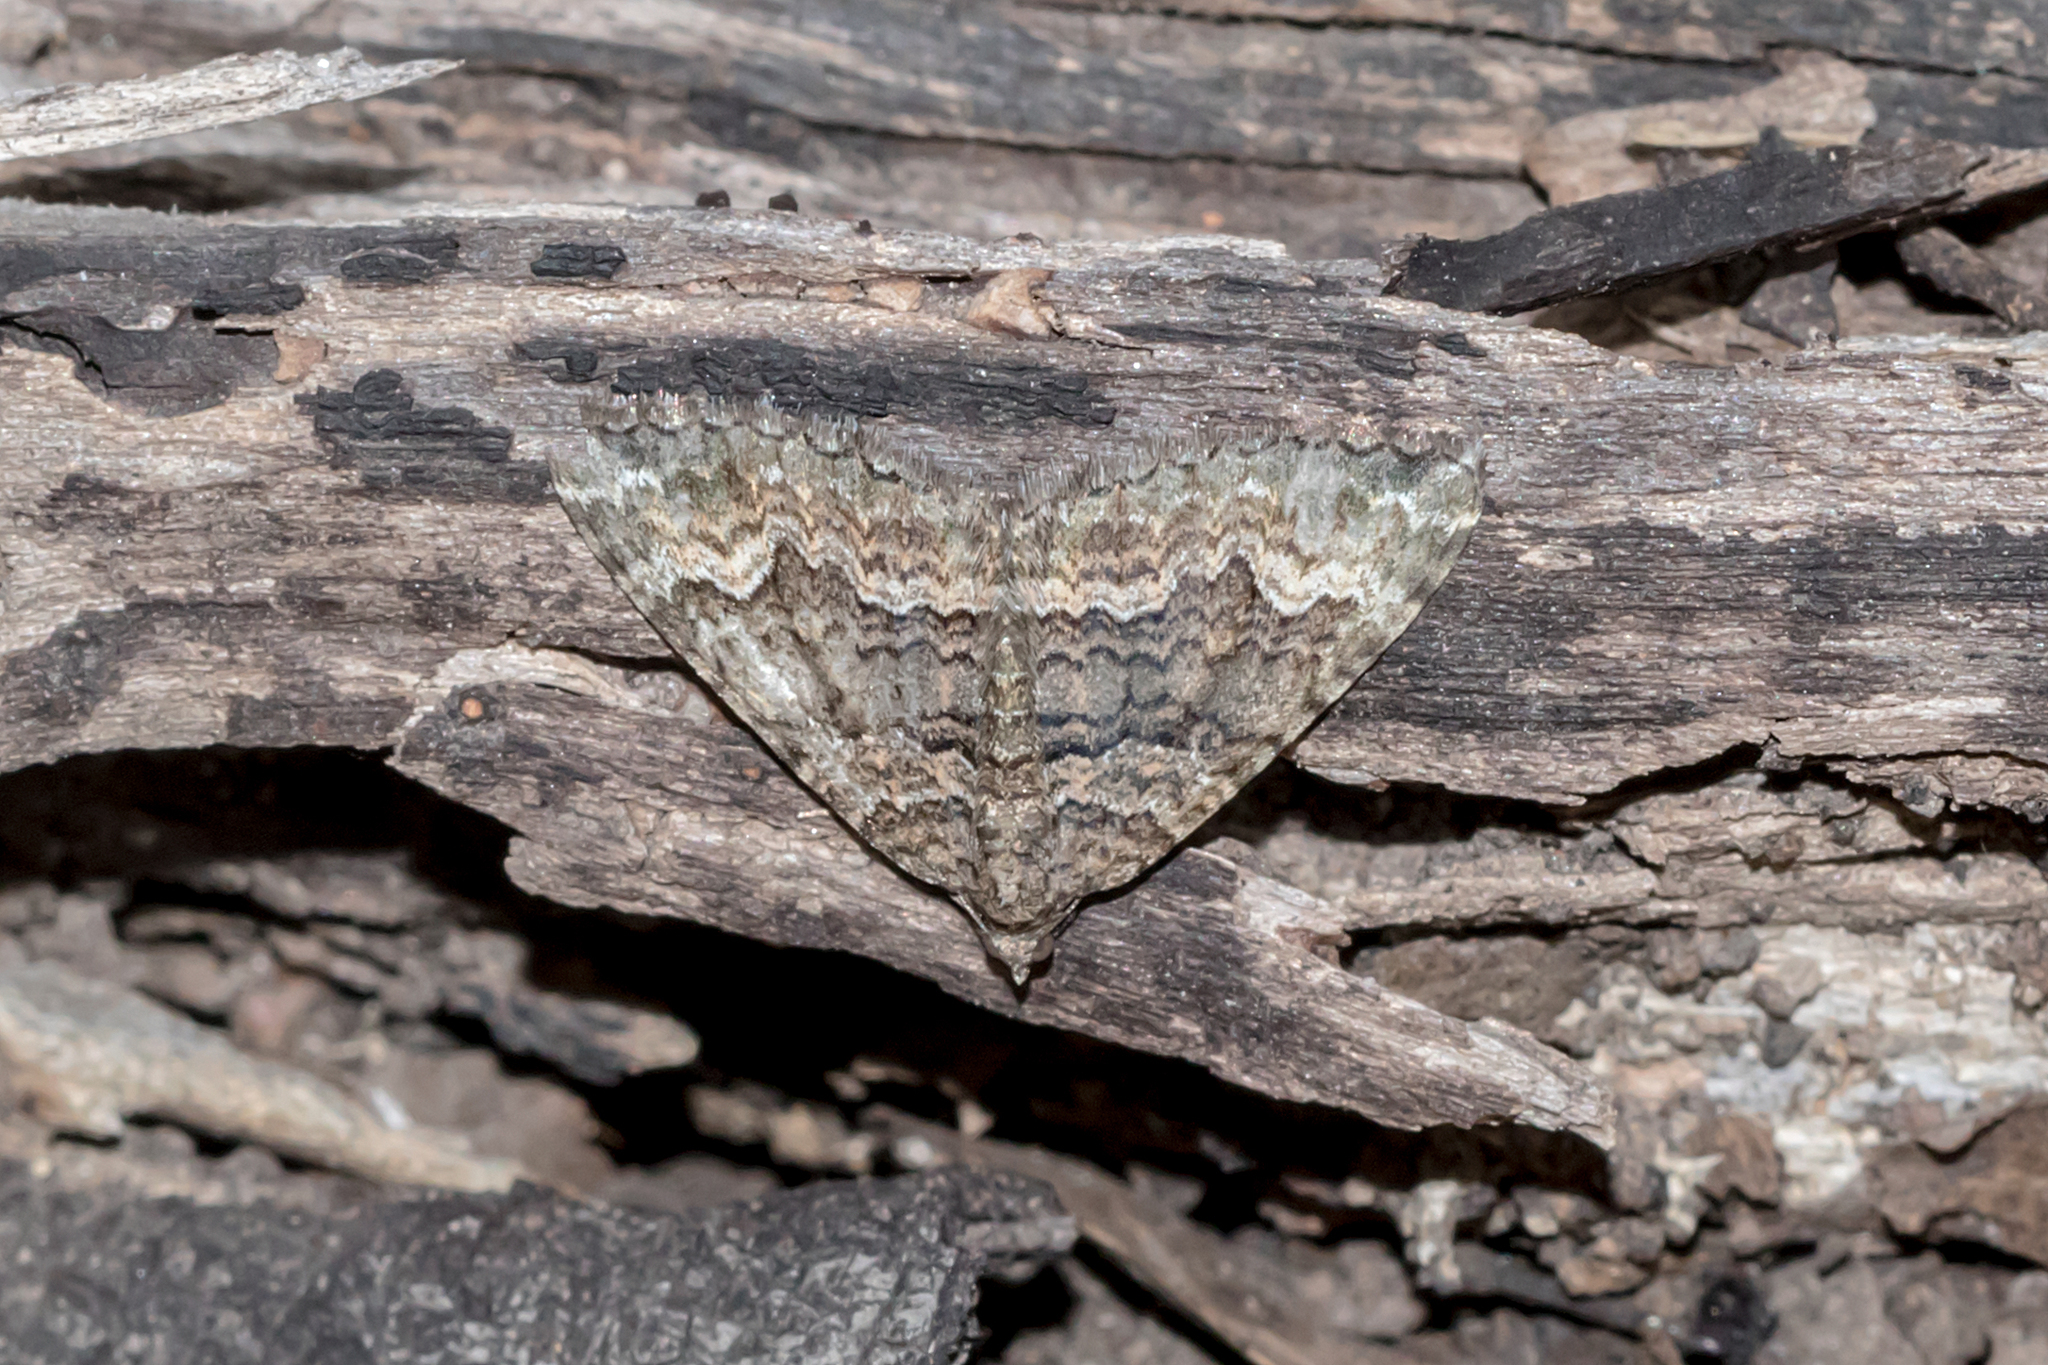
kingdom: Animalia
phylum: Arthropoda
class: Insecta
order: Lepidoptera
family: Geometridae
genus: Xanthorhoe
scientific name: Xanthorhoe strumosata
